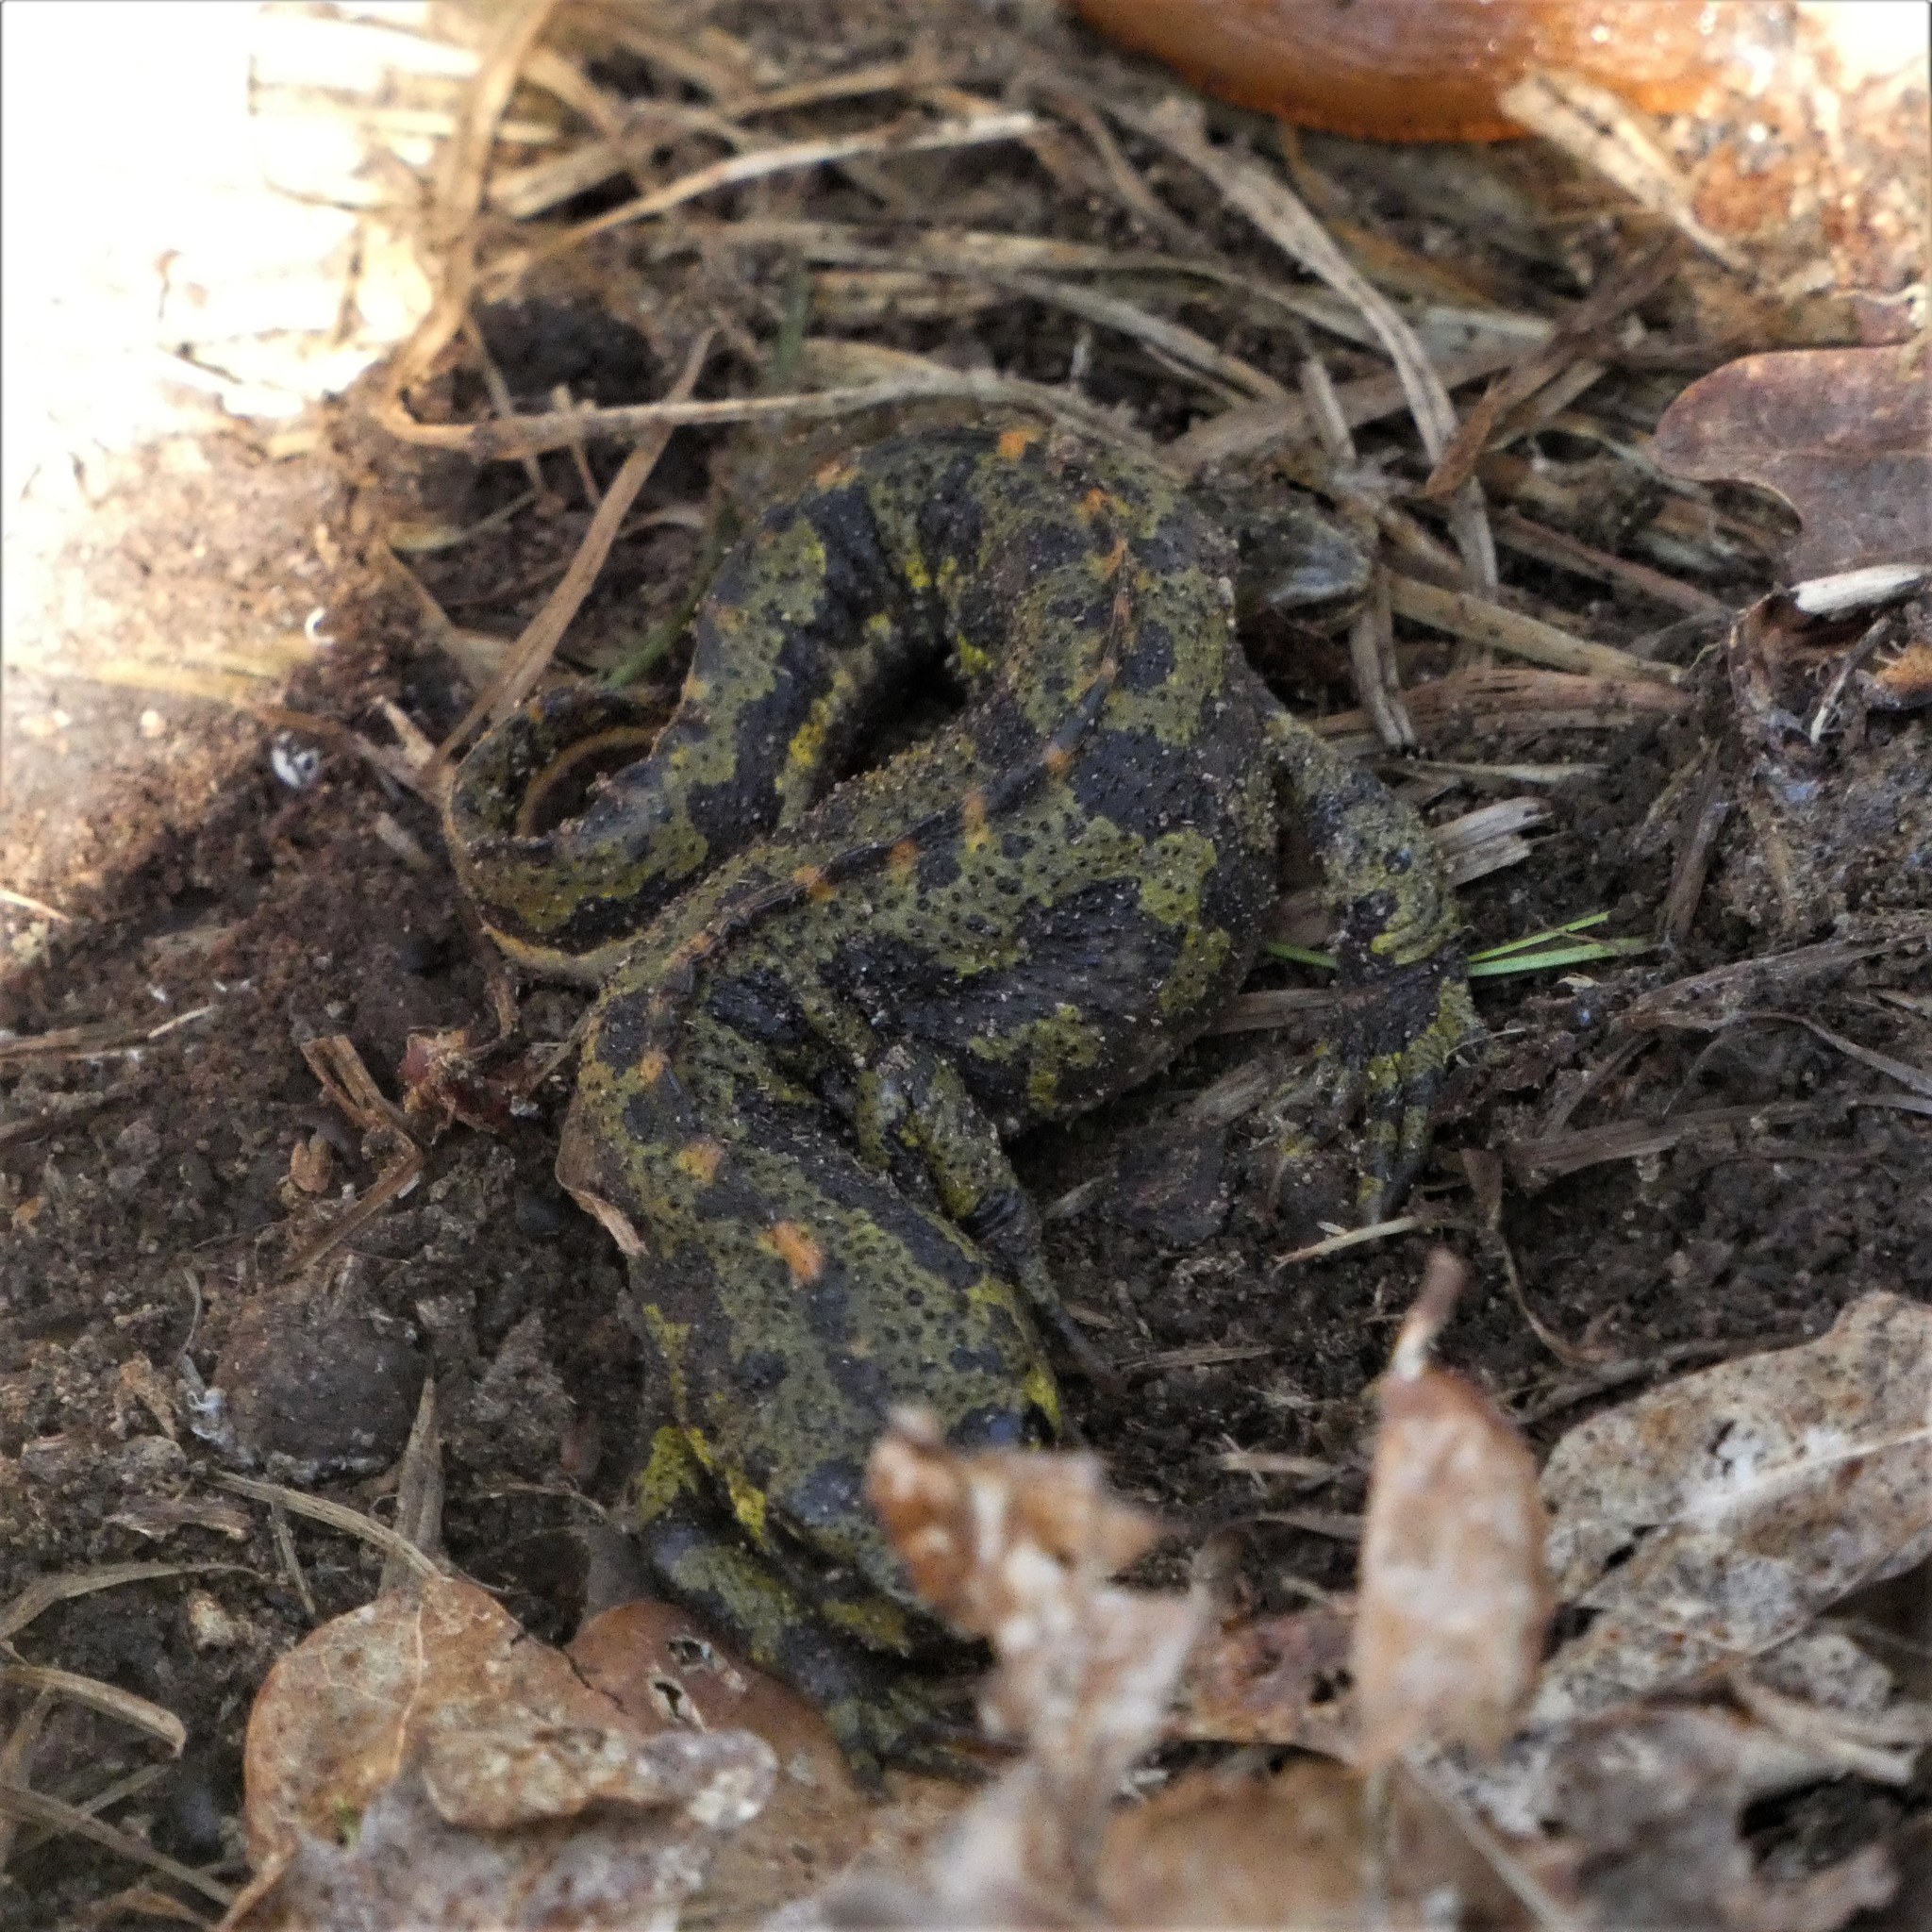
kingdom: Animalia
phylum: Chordata
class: Amphibia
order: Caudata
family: Salamandridae
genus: Triturus
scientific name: Triturus marmoratus
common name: Marbled newt
